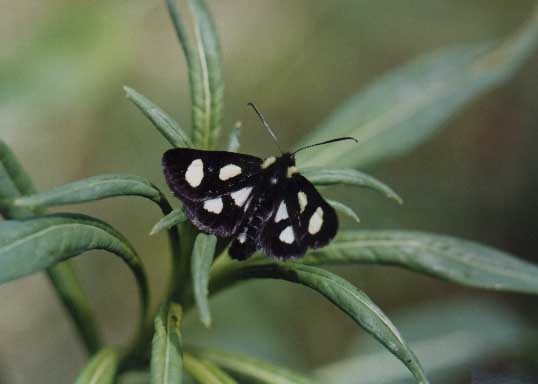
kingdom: Animalia
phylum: Arthropoda
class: Insecta
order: Lepidoptera
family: Noctuidae
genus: Alypia
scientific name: Alypia langtonii
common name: Fireweed caterpillar
